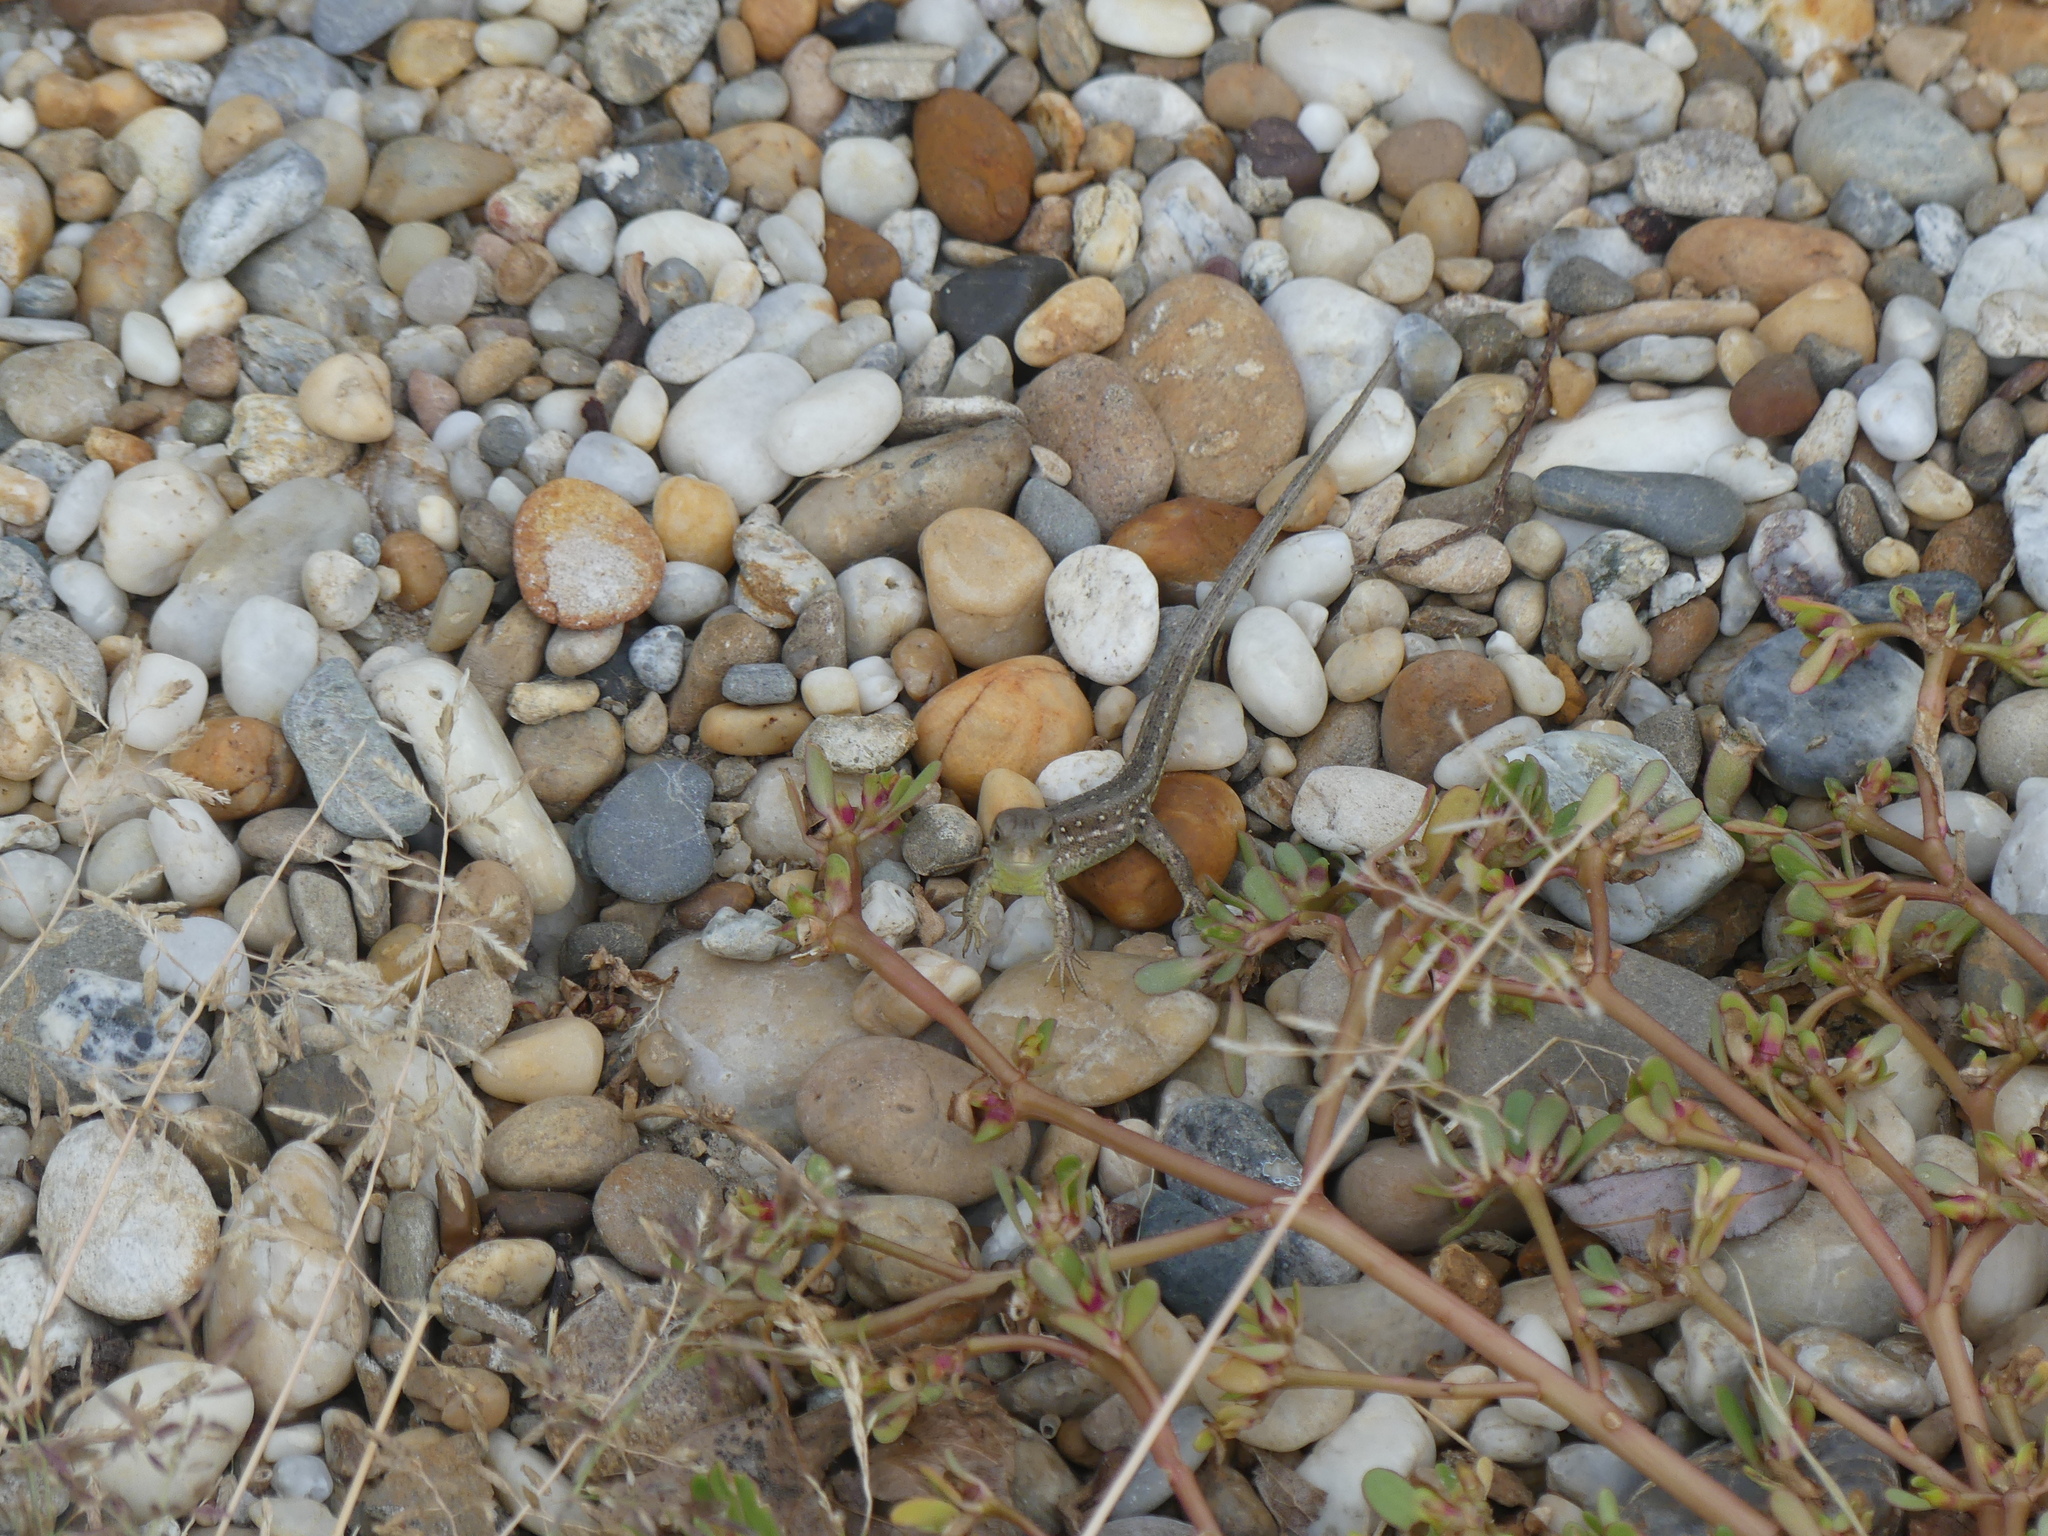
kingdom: Animalia
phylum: Chordata
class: Squamata
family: Lacertidae
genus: Lacerta
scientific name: Lacerta agilis
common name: Sand lizard
